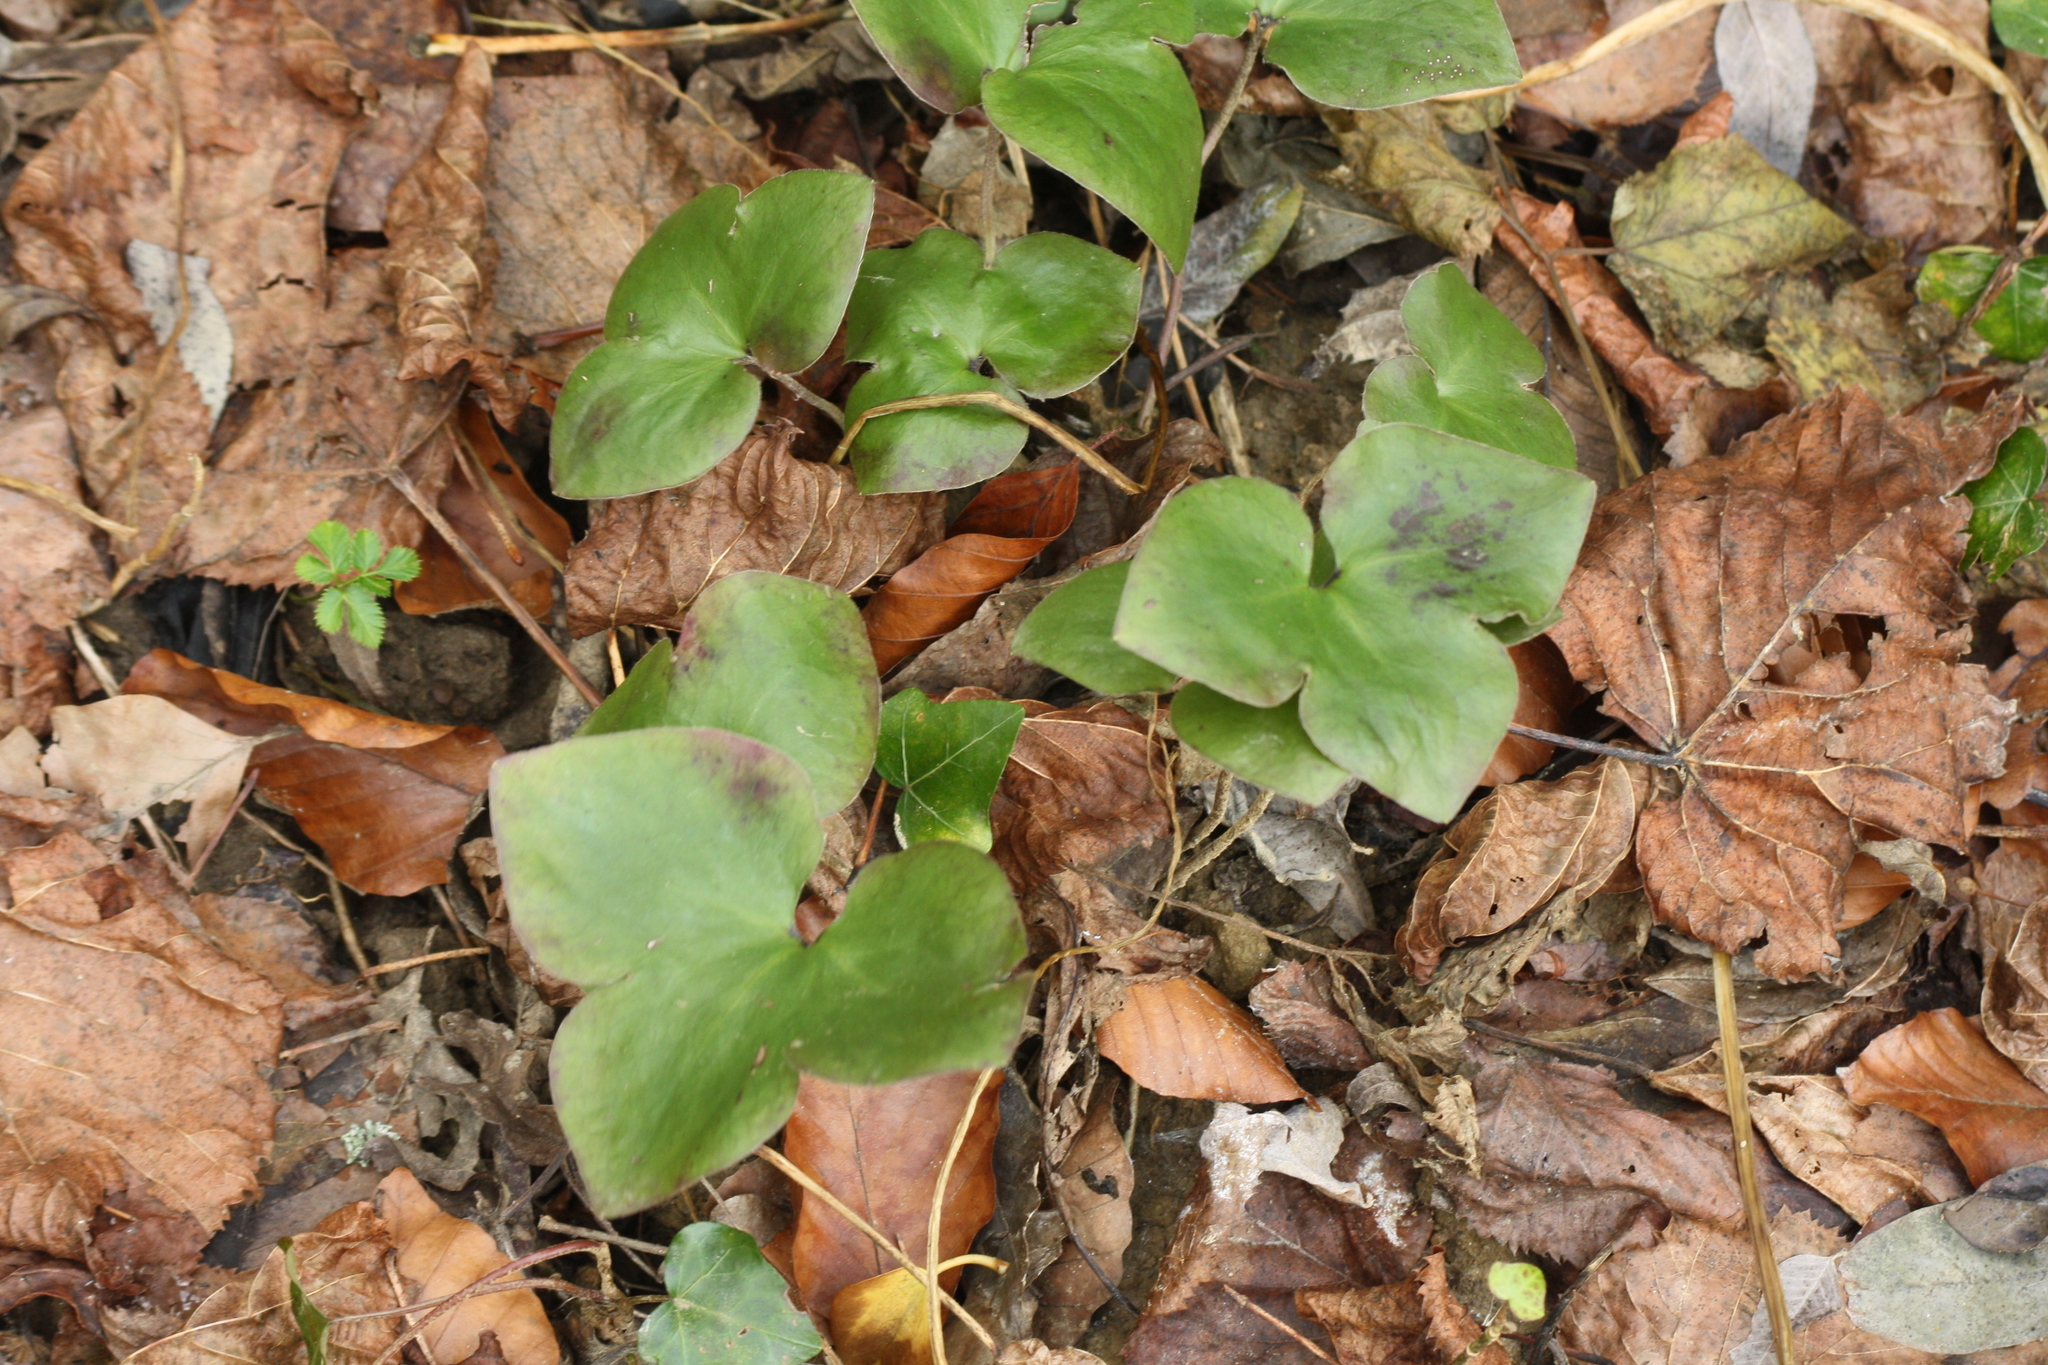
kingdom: Plantae
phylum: Tracheophyta
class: Magnoliopsida
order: Ranunculales
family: Ranunculaceae
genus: Hepatica
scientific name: Hepatica nobilis
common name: Liverleaf
